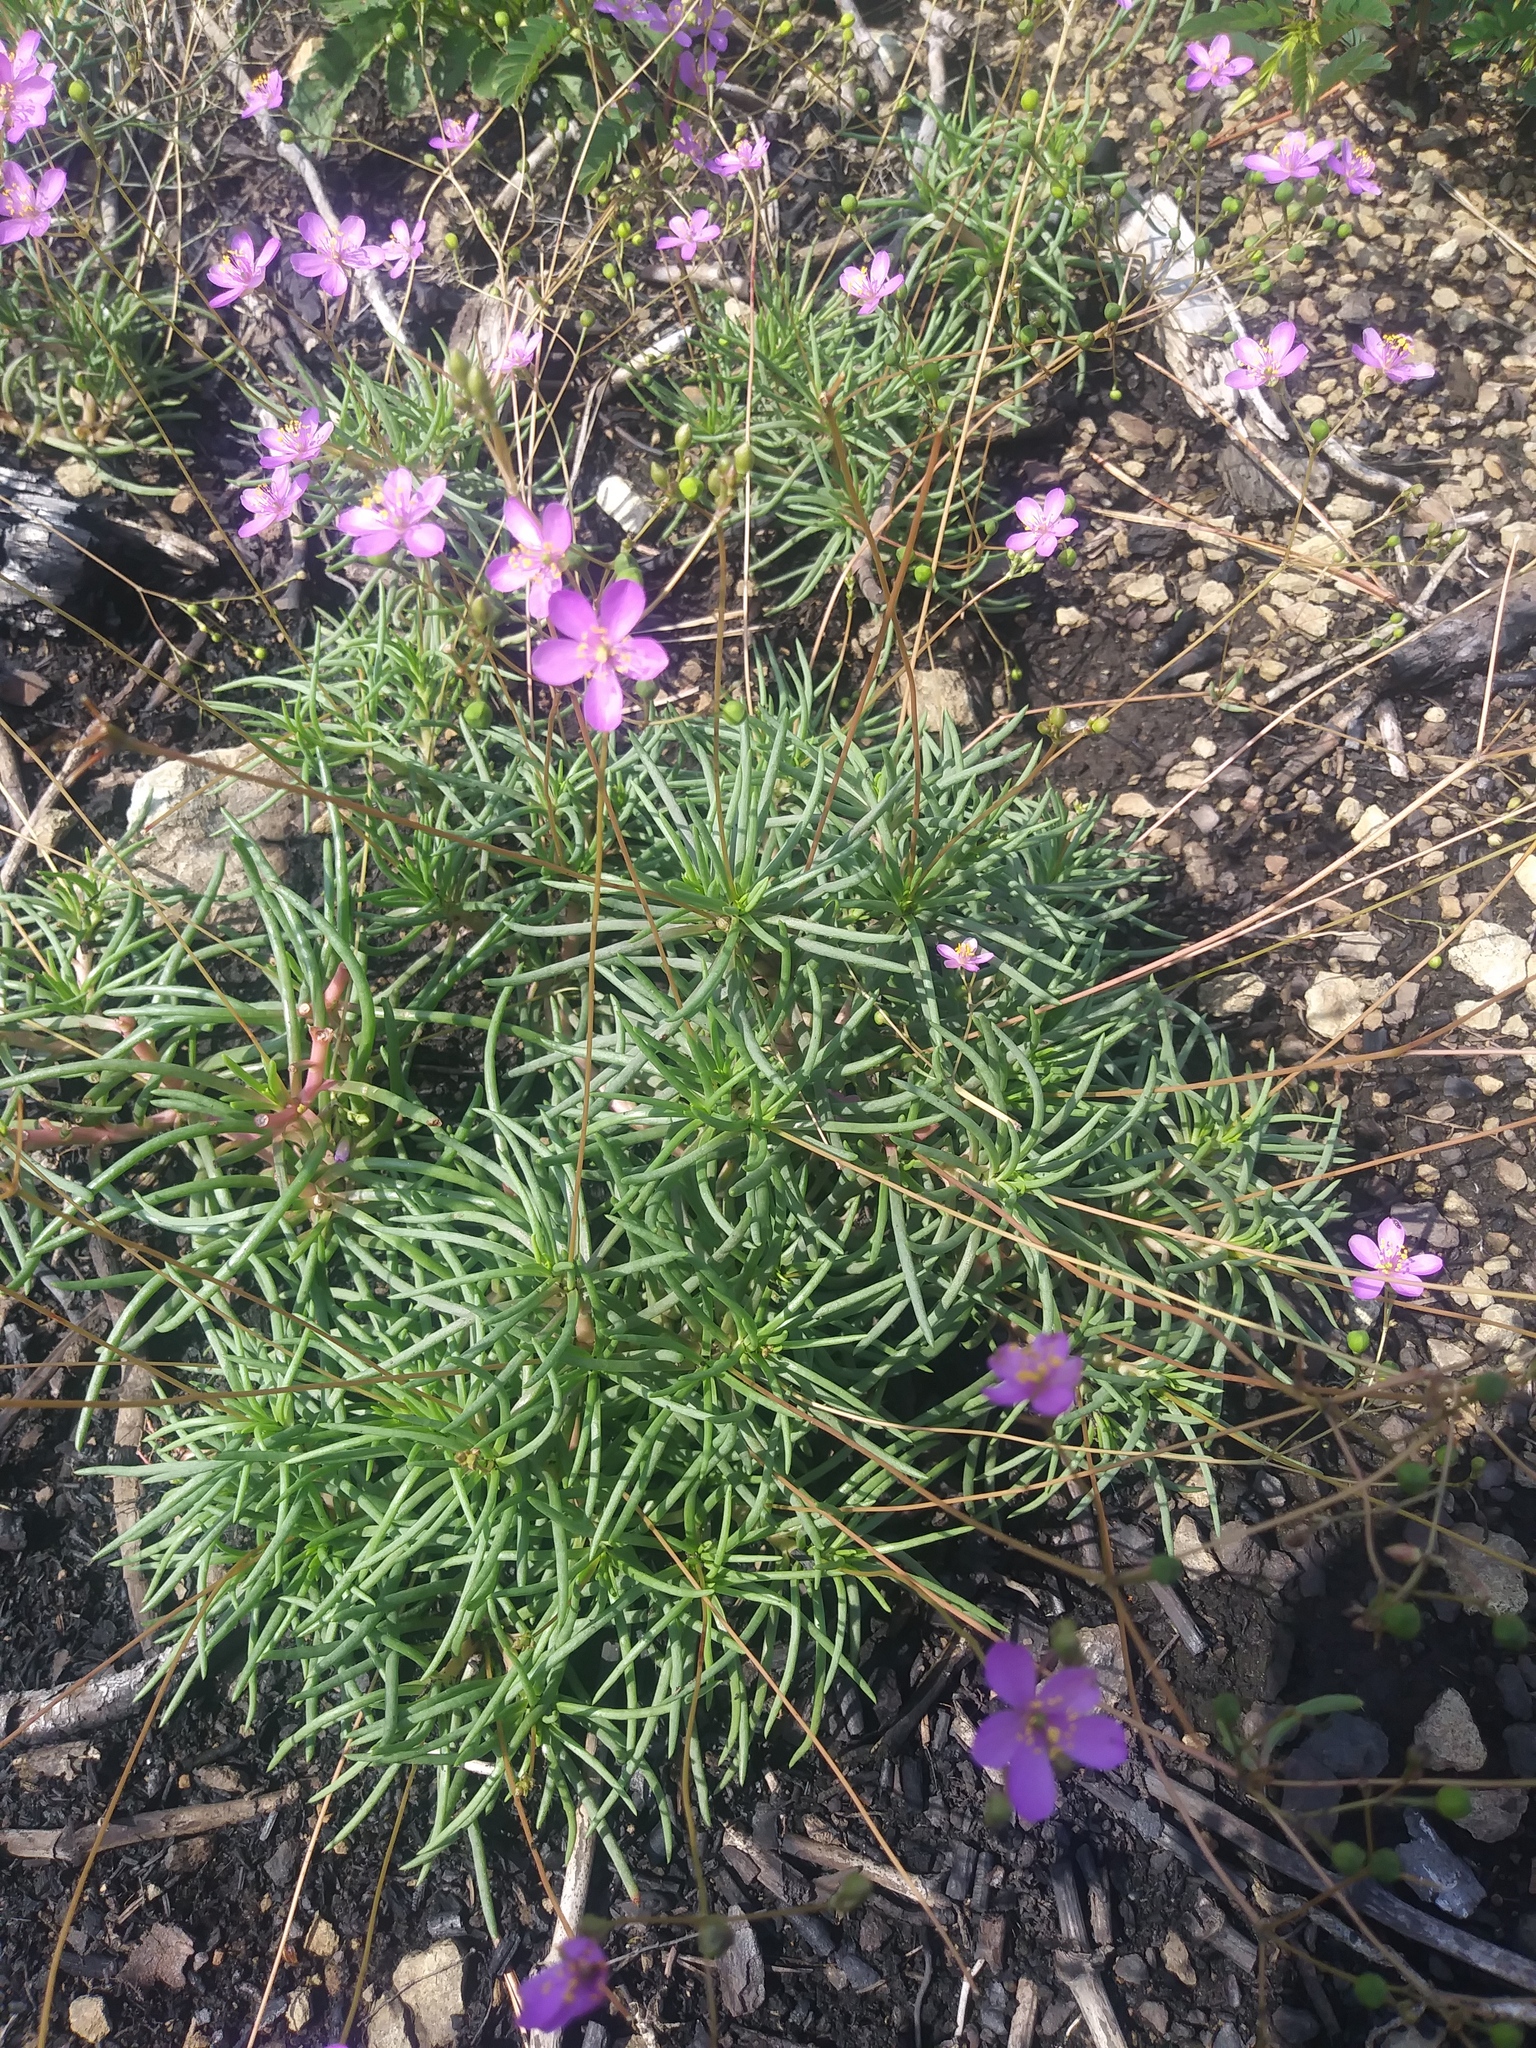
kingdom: Plantae
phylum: Tracheophyta
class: Magnoliopsida
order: Caryophyllales
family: Montiaceae
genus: Phemeranthus
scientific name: Phemeranthus teretifolius
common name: Quill fameflower
